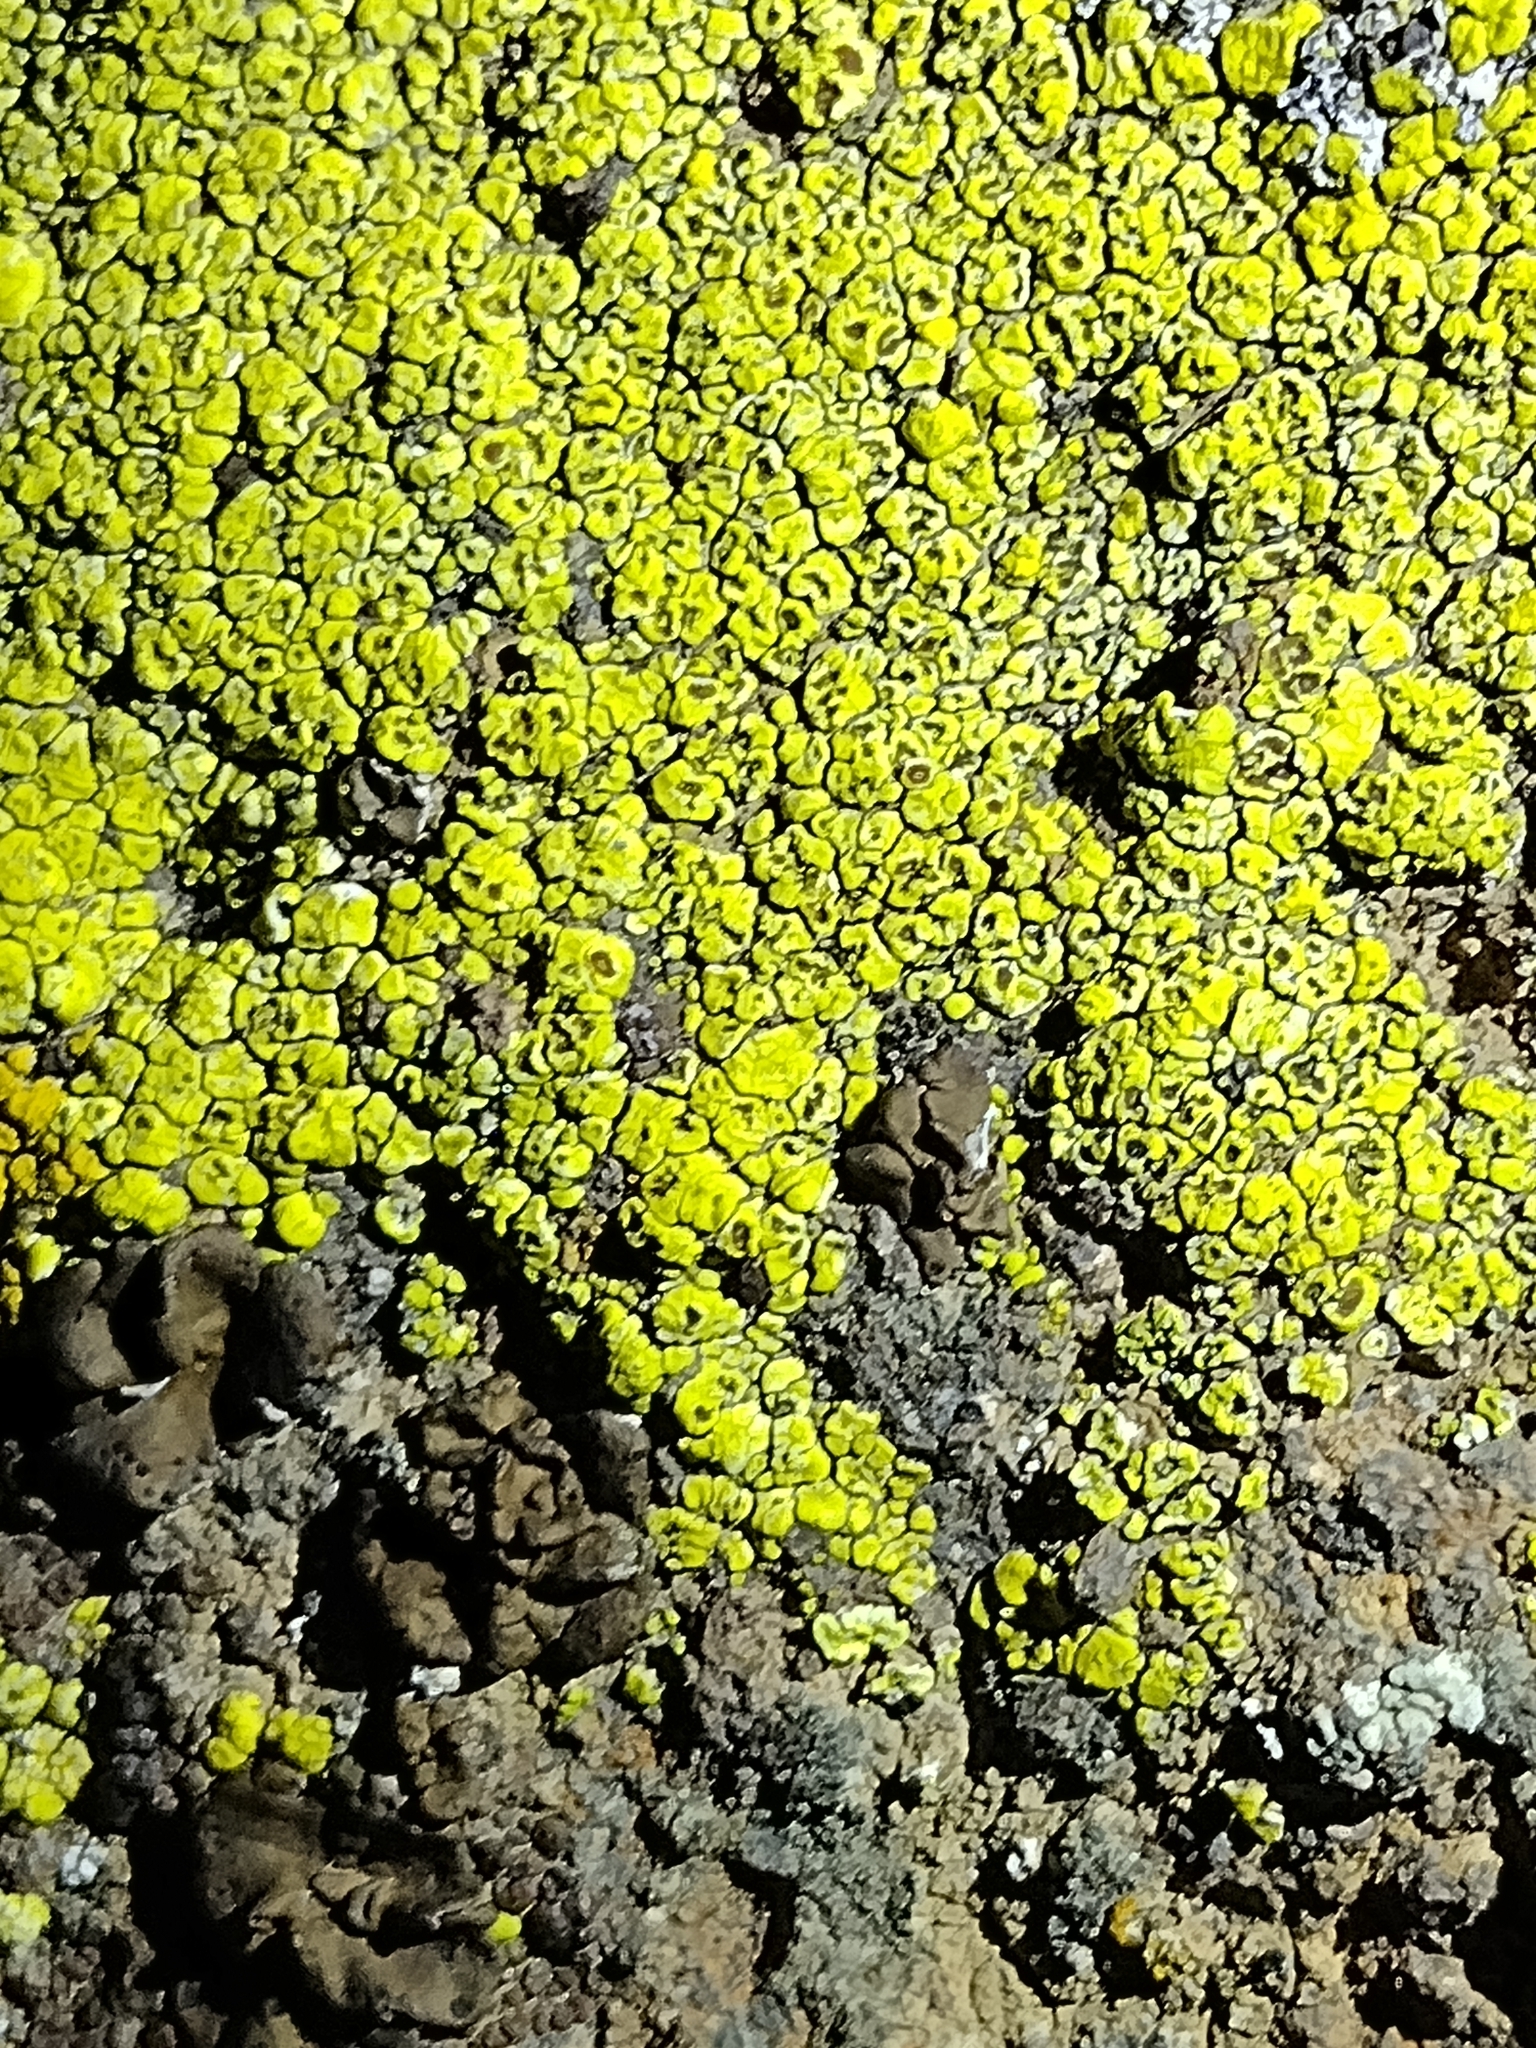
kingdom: Fungi
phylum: Ascomycota
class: Lecanoromycetes
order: Acarosporales
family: Acarosporaceae
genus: Acarospora
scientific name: Acarospora socialis
